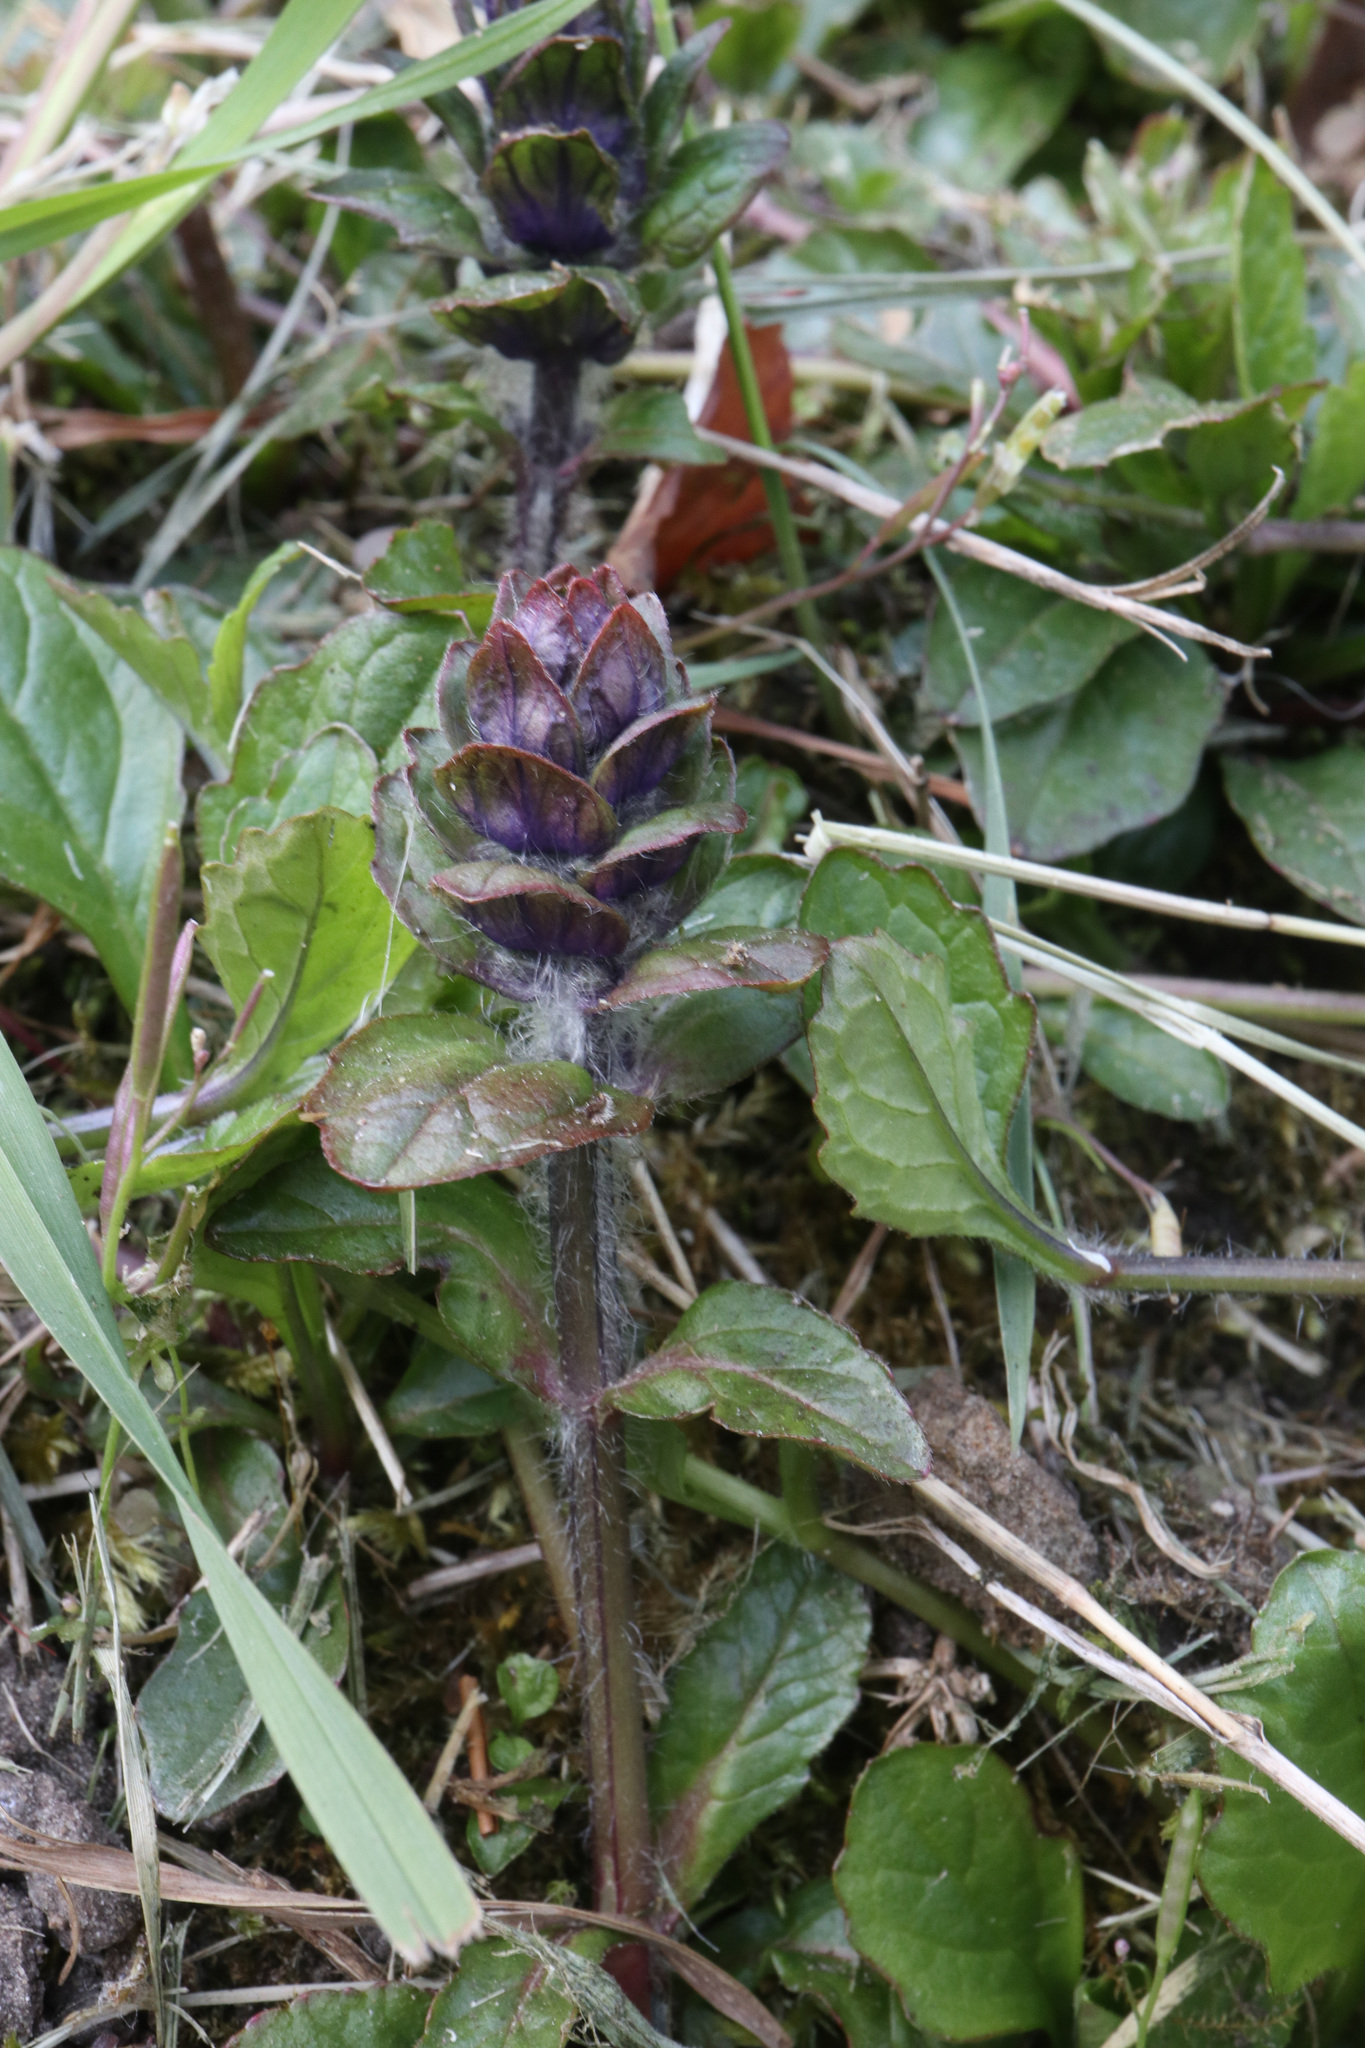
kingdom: Plantae
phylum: Tracheophyta
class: Magnoliopsida
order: Lamiales
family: Lamiaceae
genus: Ajuga
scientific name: Ajuga reptans
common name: Bugle
